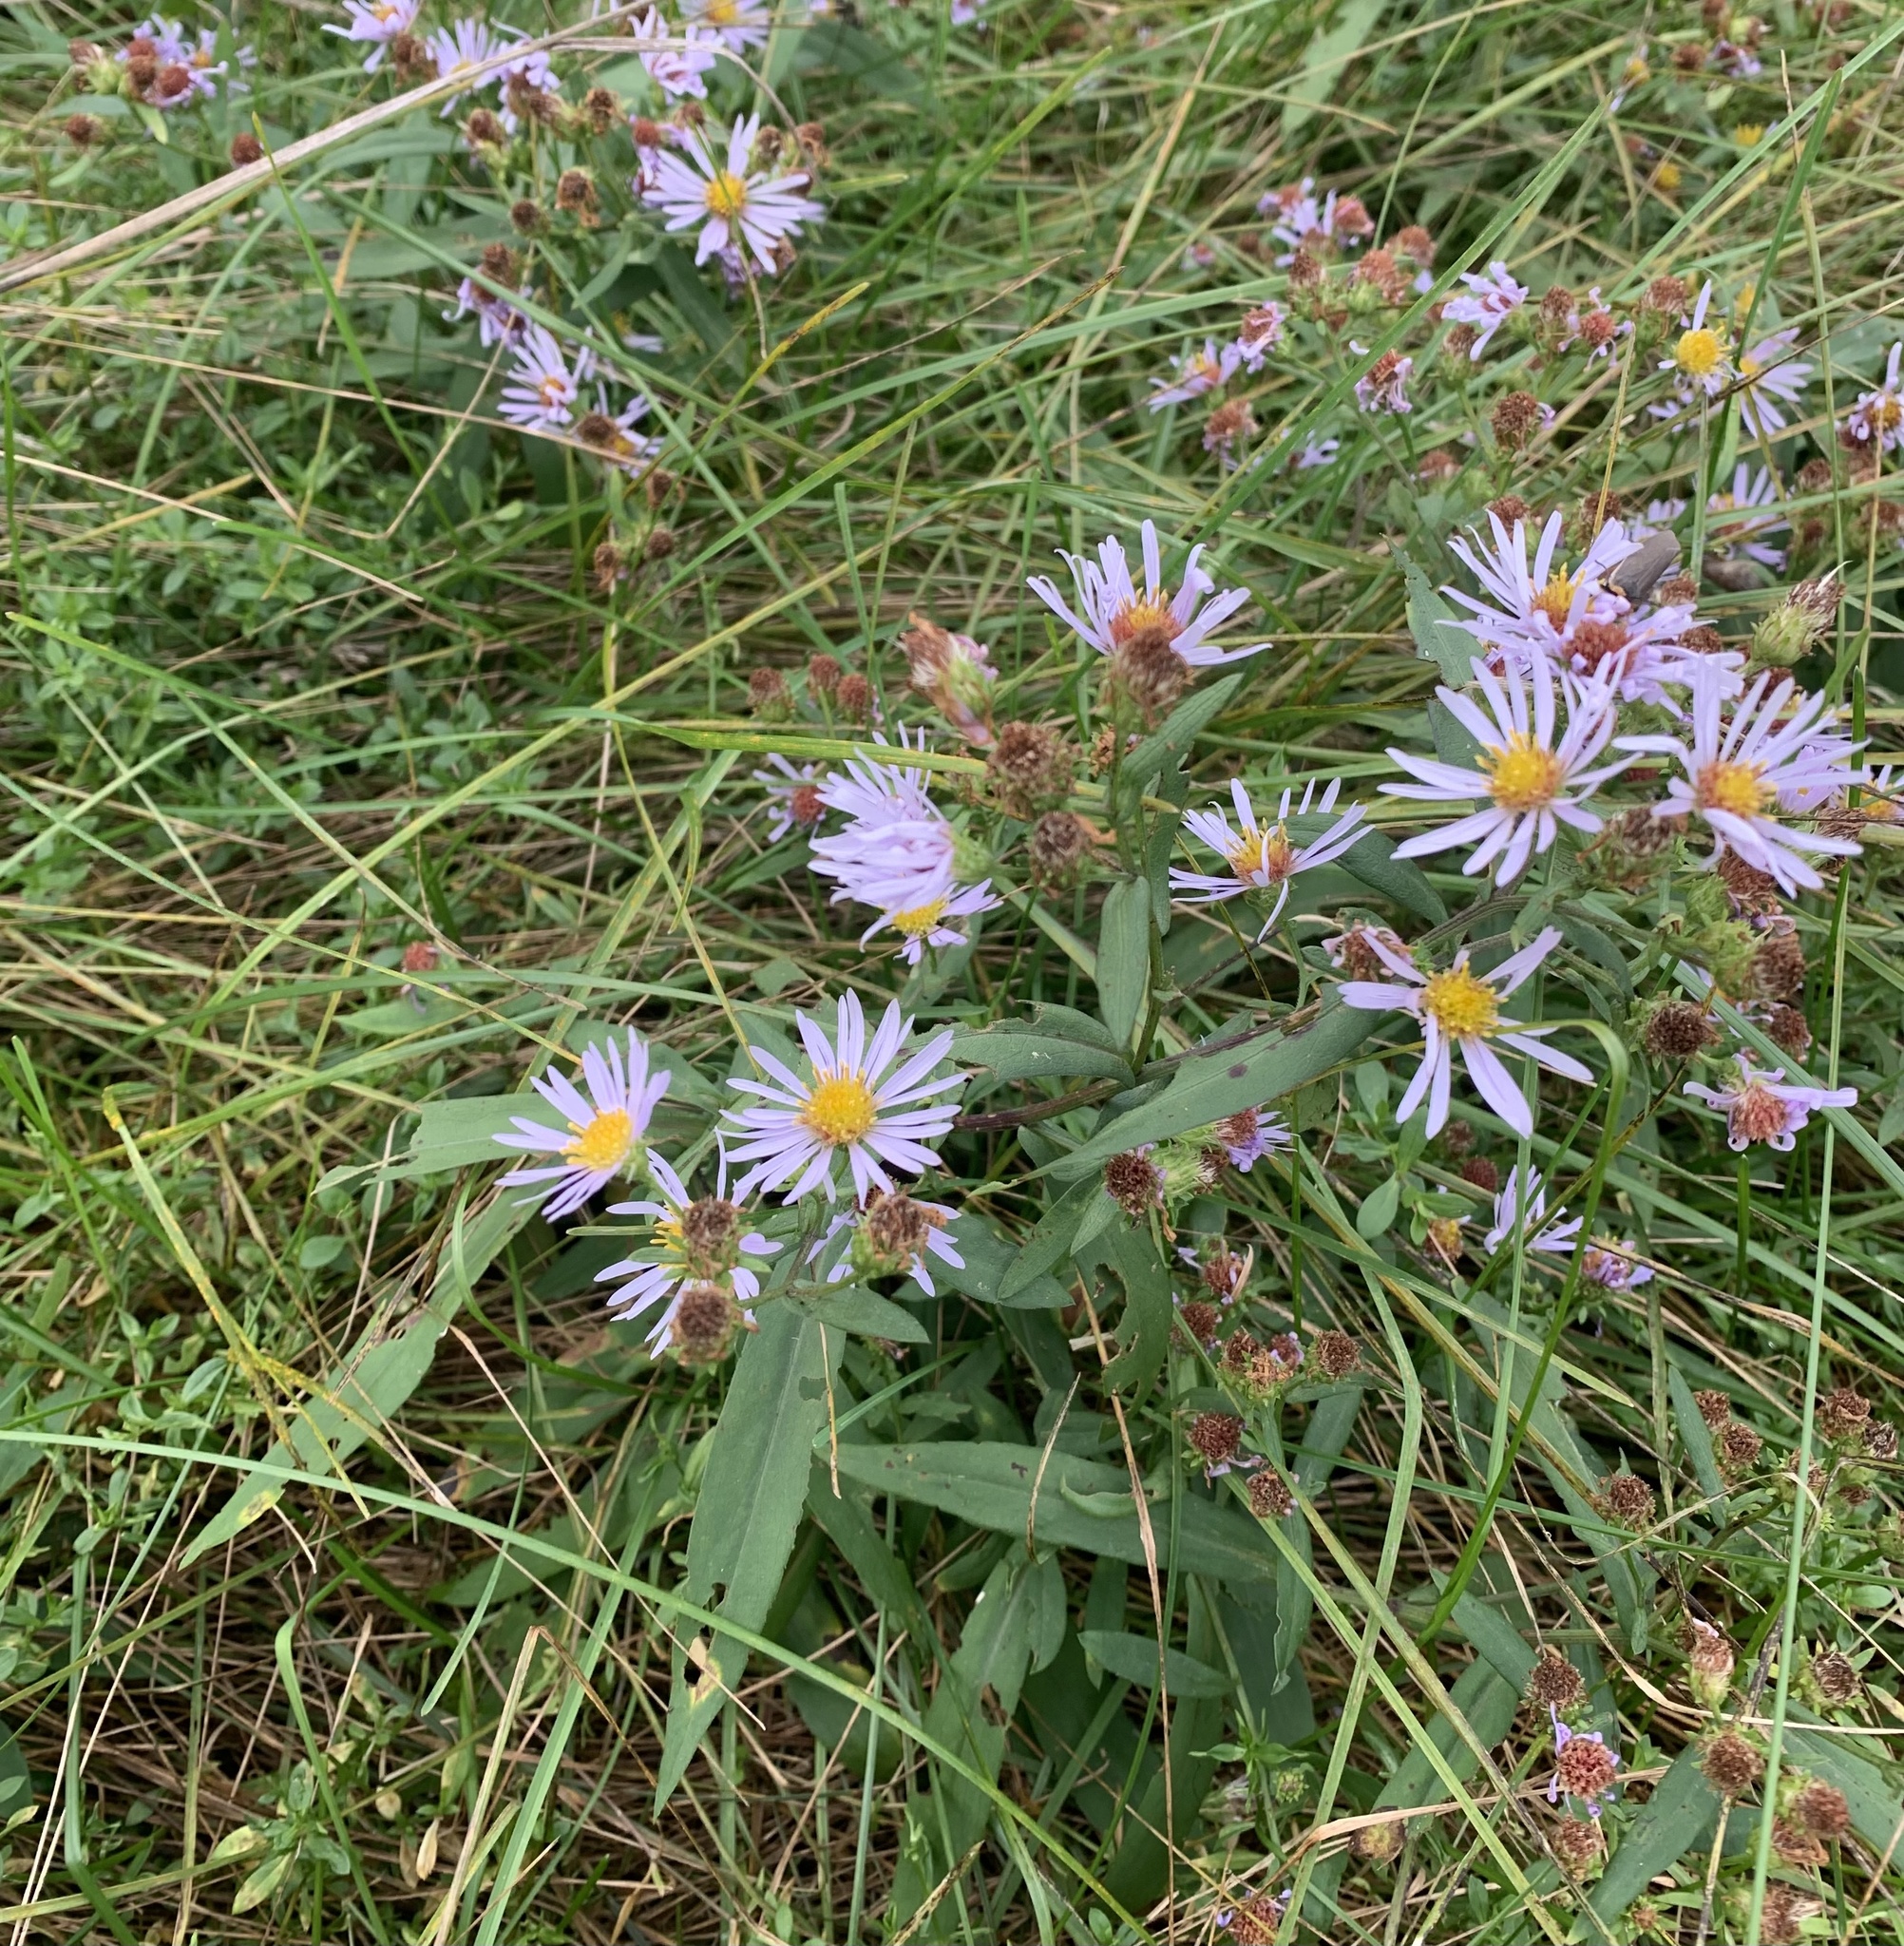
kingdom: Plantae
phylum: Tracheophyta
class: Magnoliopsida
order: Asterales
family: Asteraceae
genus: Symphyotrichum
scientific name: Symphyotrichum novi-belgii
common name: Michaelmas daisy
